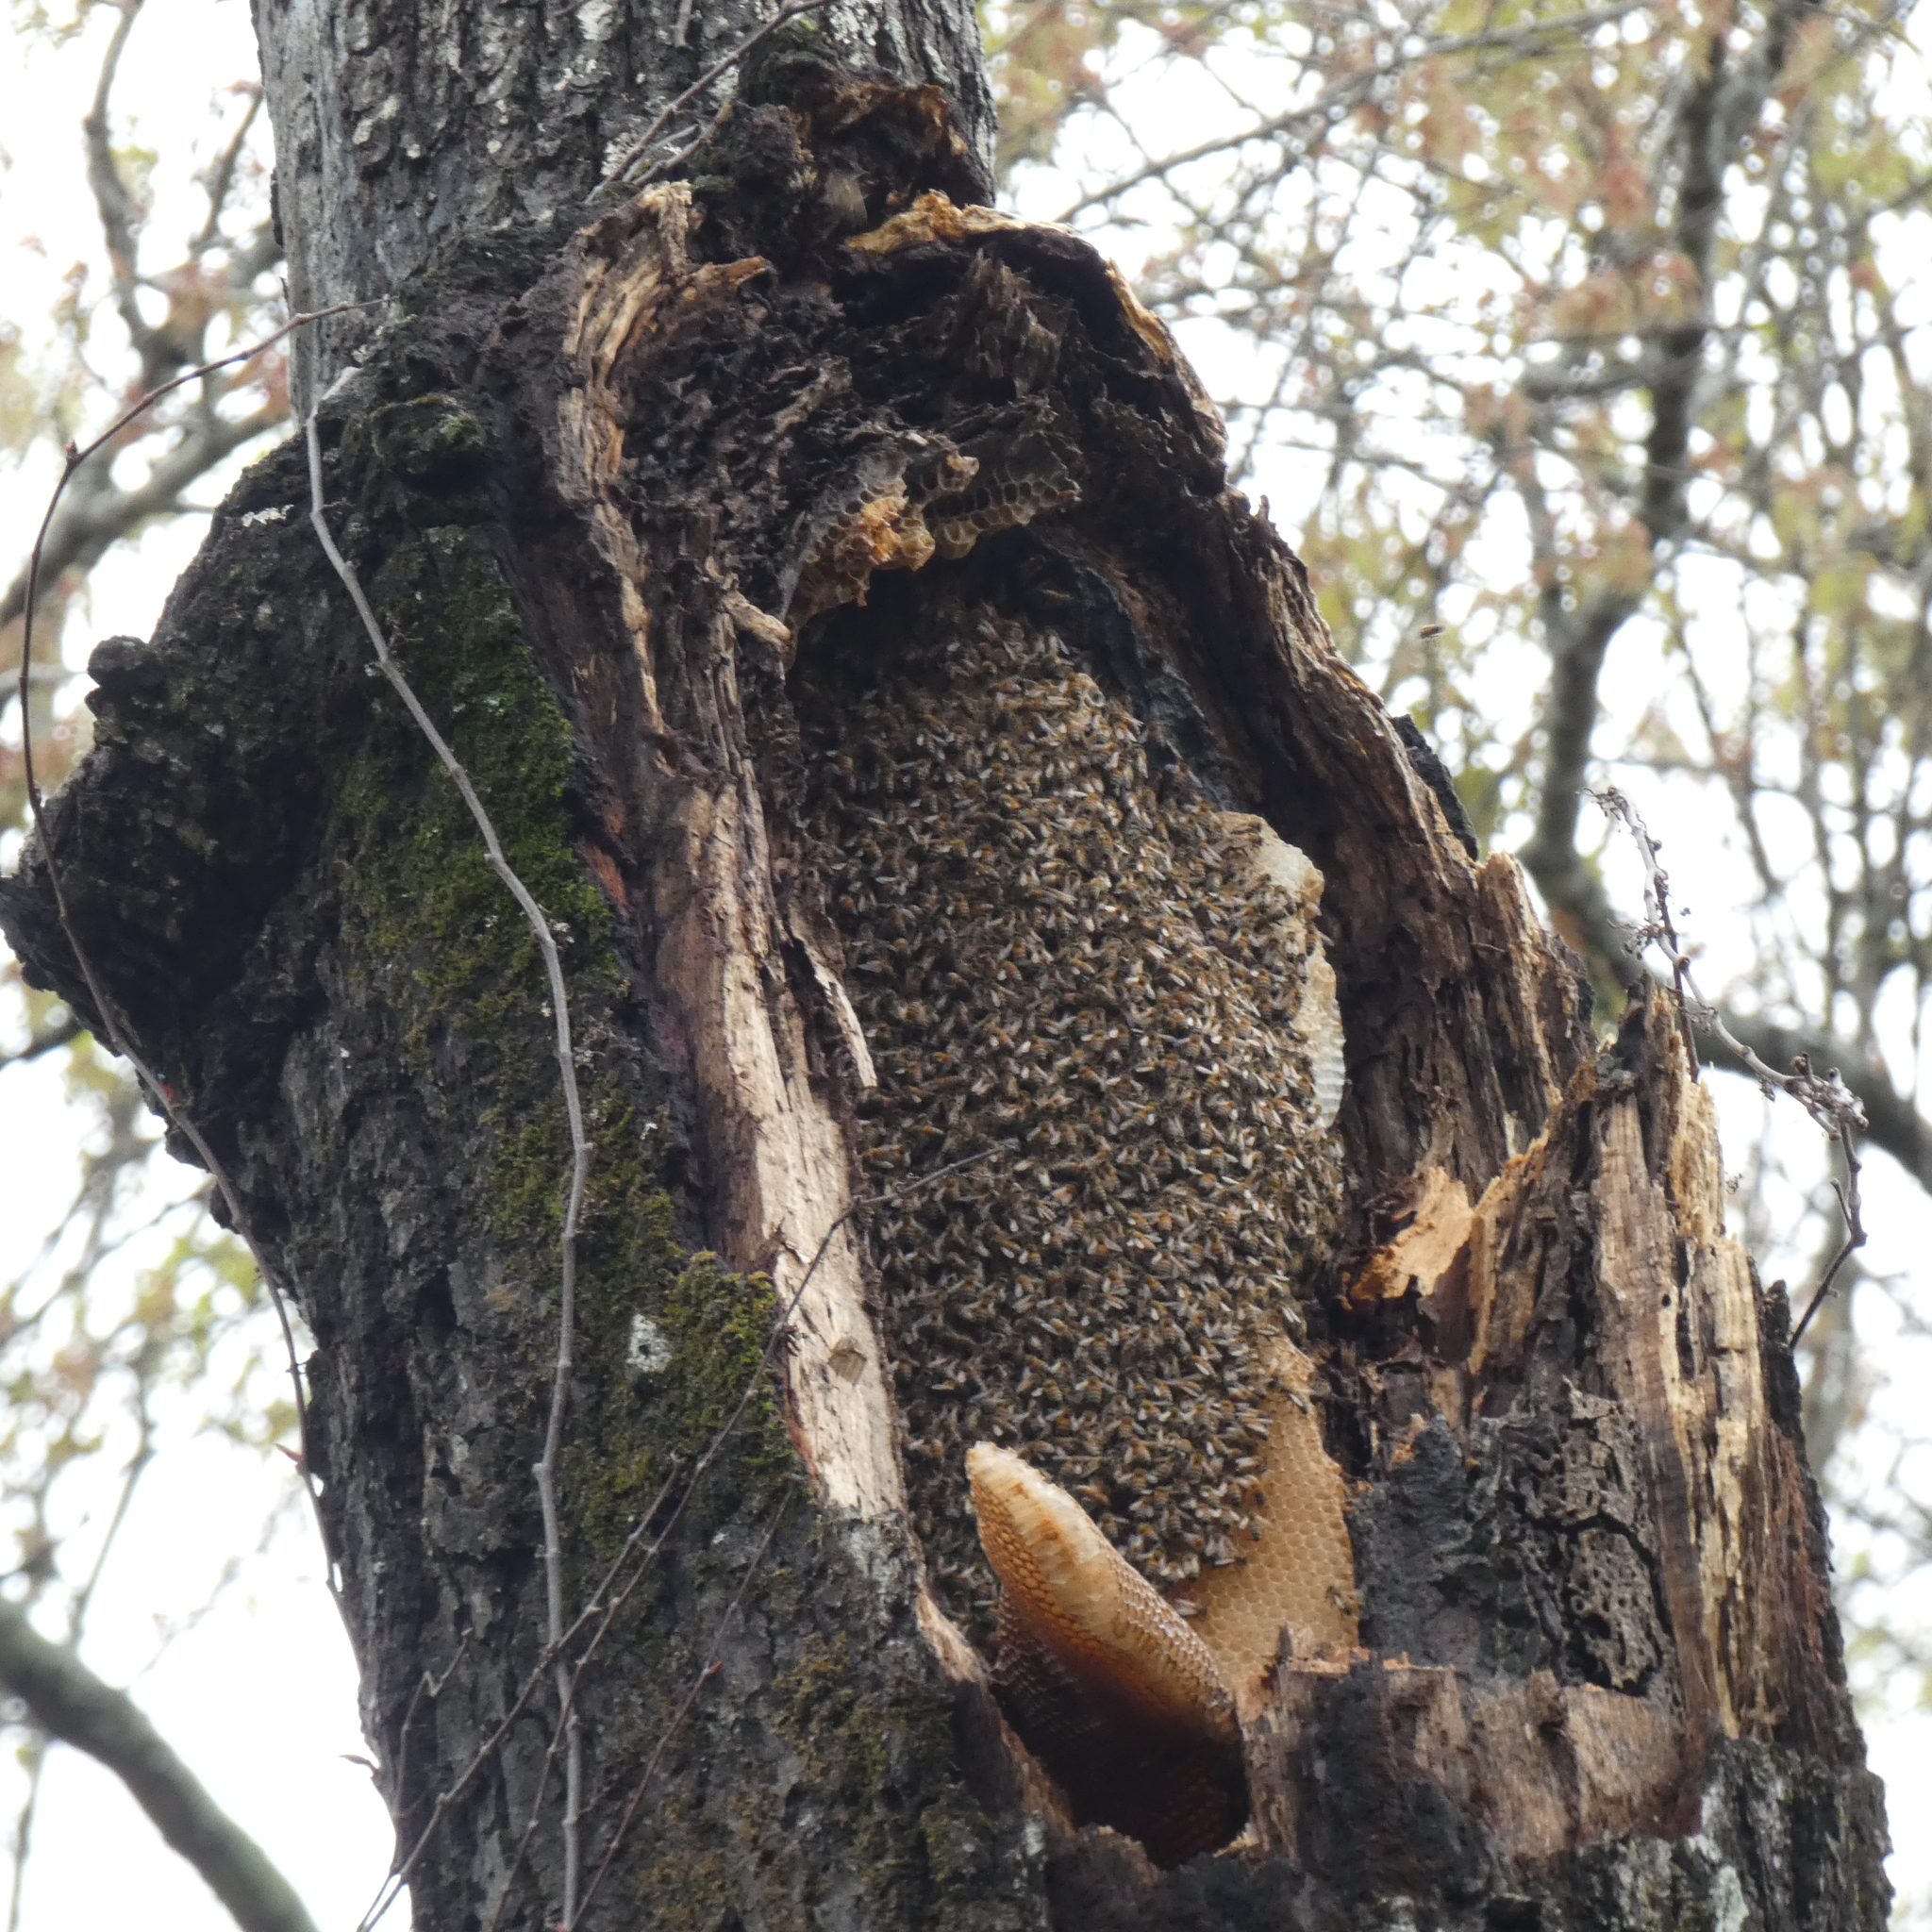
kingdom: Animalia
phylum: Arthropoda
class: Insecta
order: Hymenoptera
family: Apidae
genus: Apis
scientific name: Apis mellifera
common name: Honey bee
